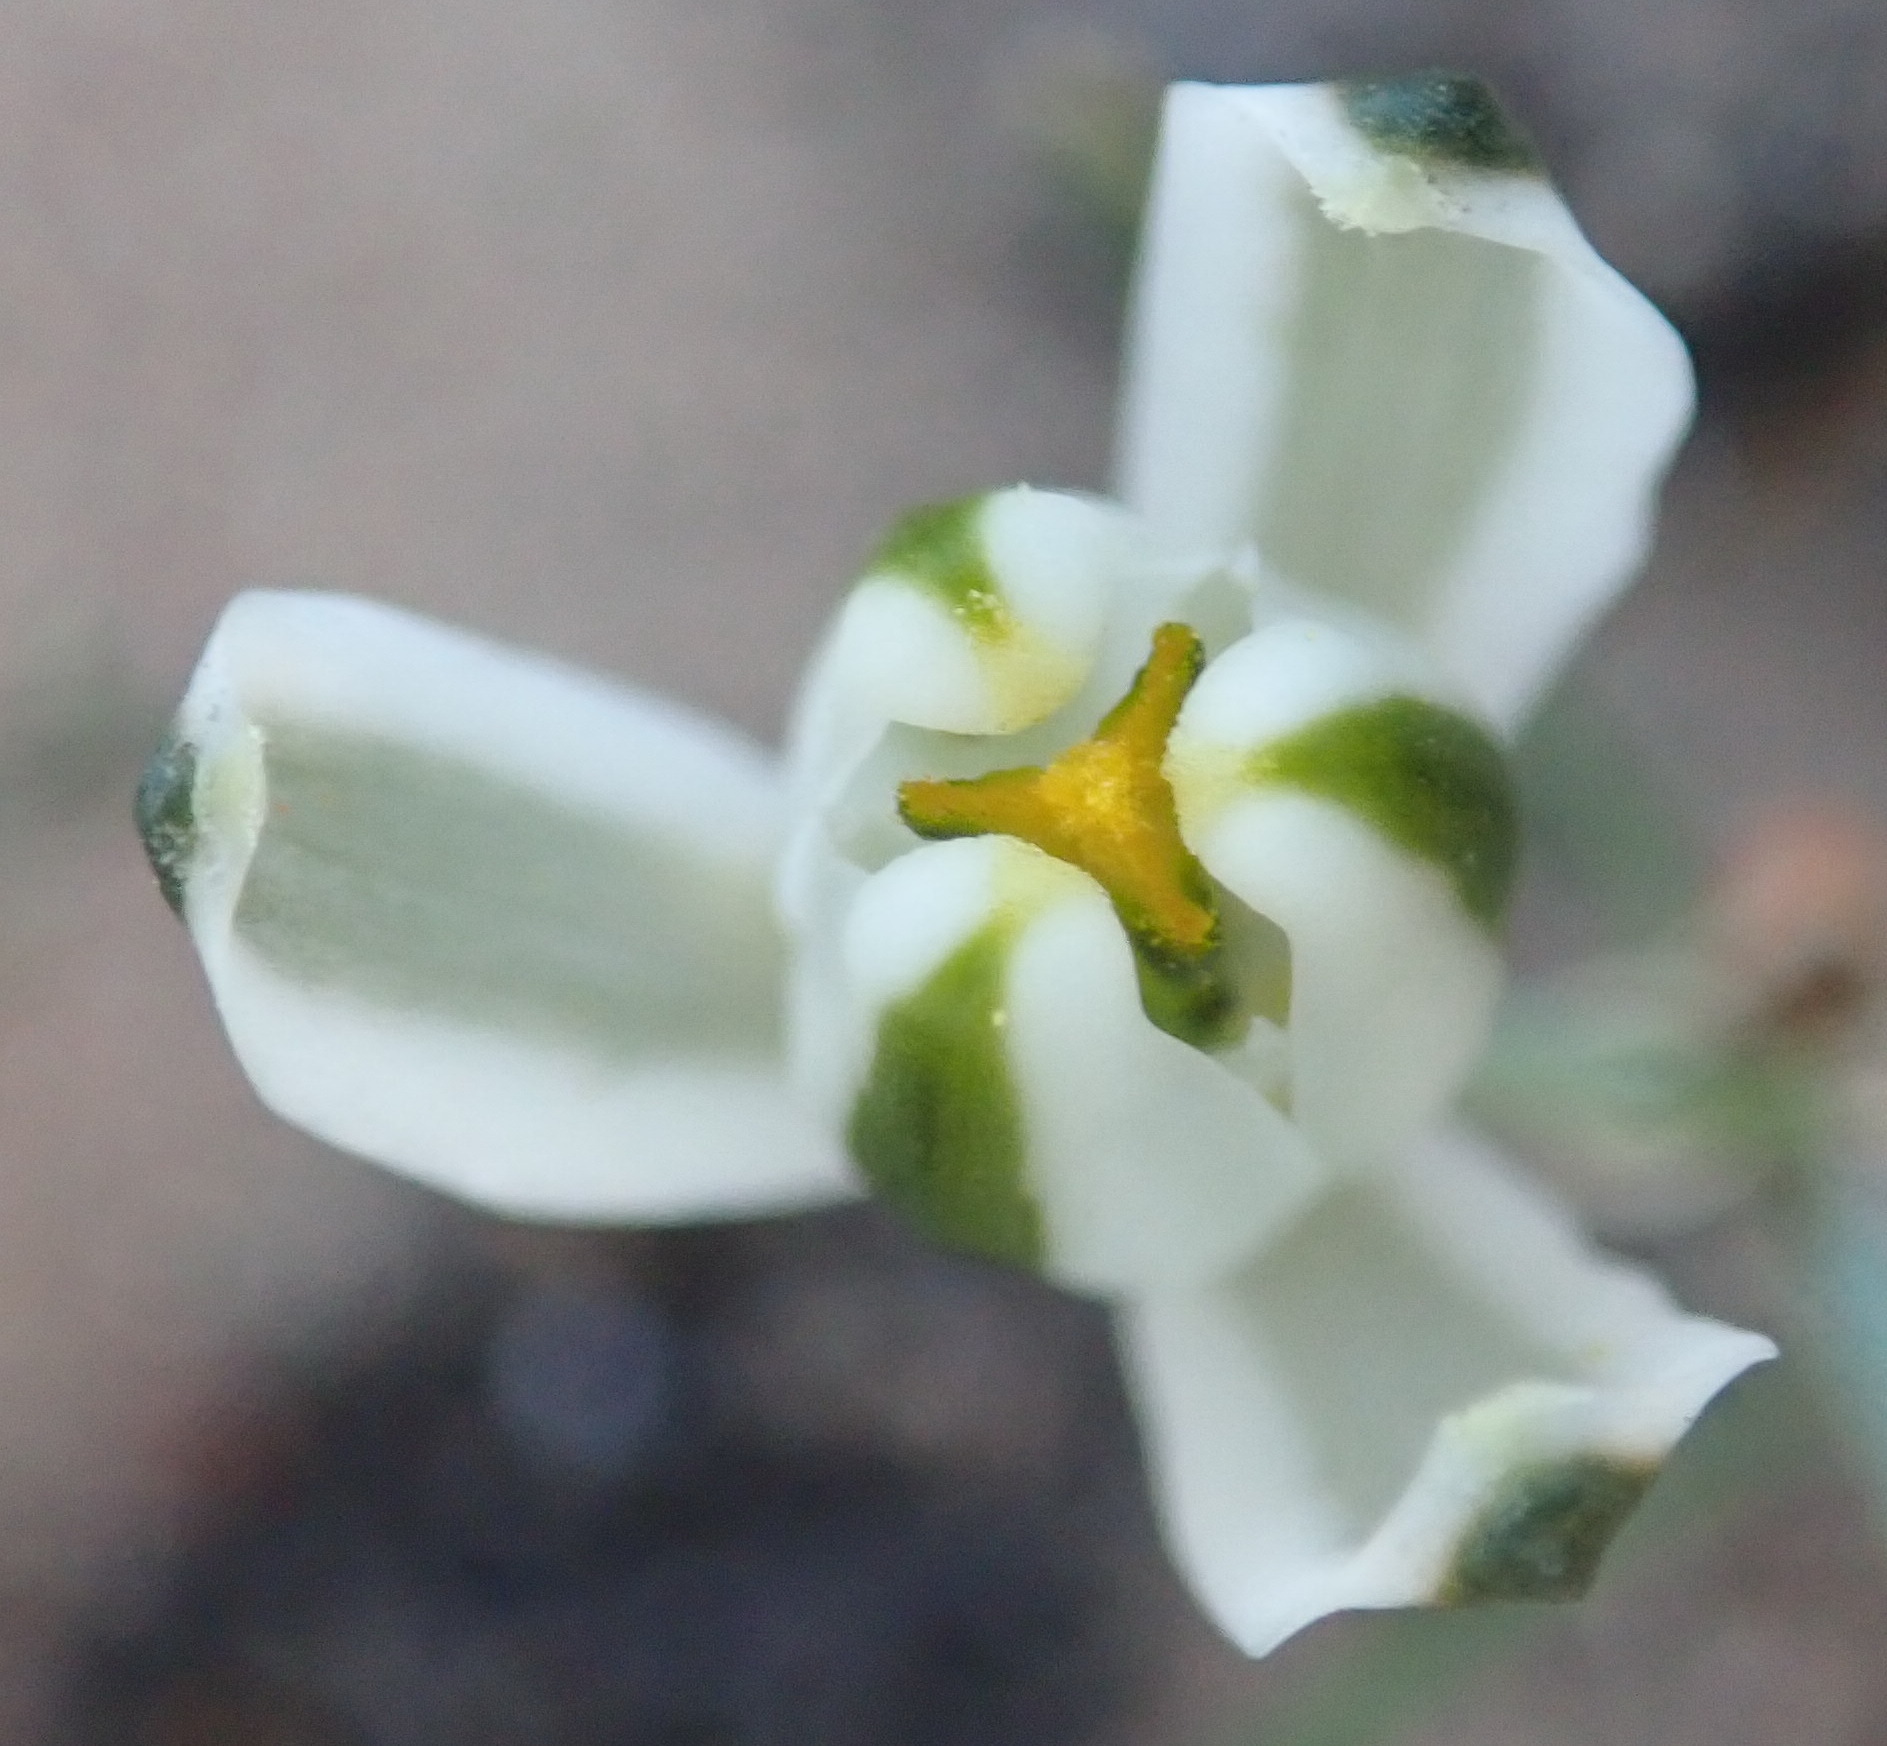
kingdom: Plantae
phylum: Tracheophyta
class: Liliopsida
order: Asparagales
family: Asparagaceae
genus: Albuca
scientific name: Albuca longipes
